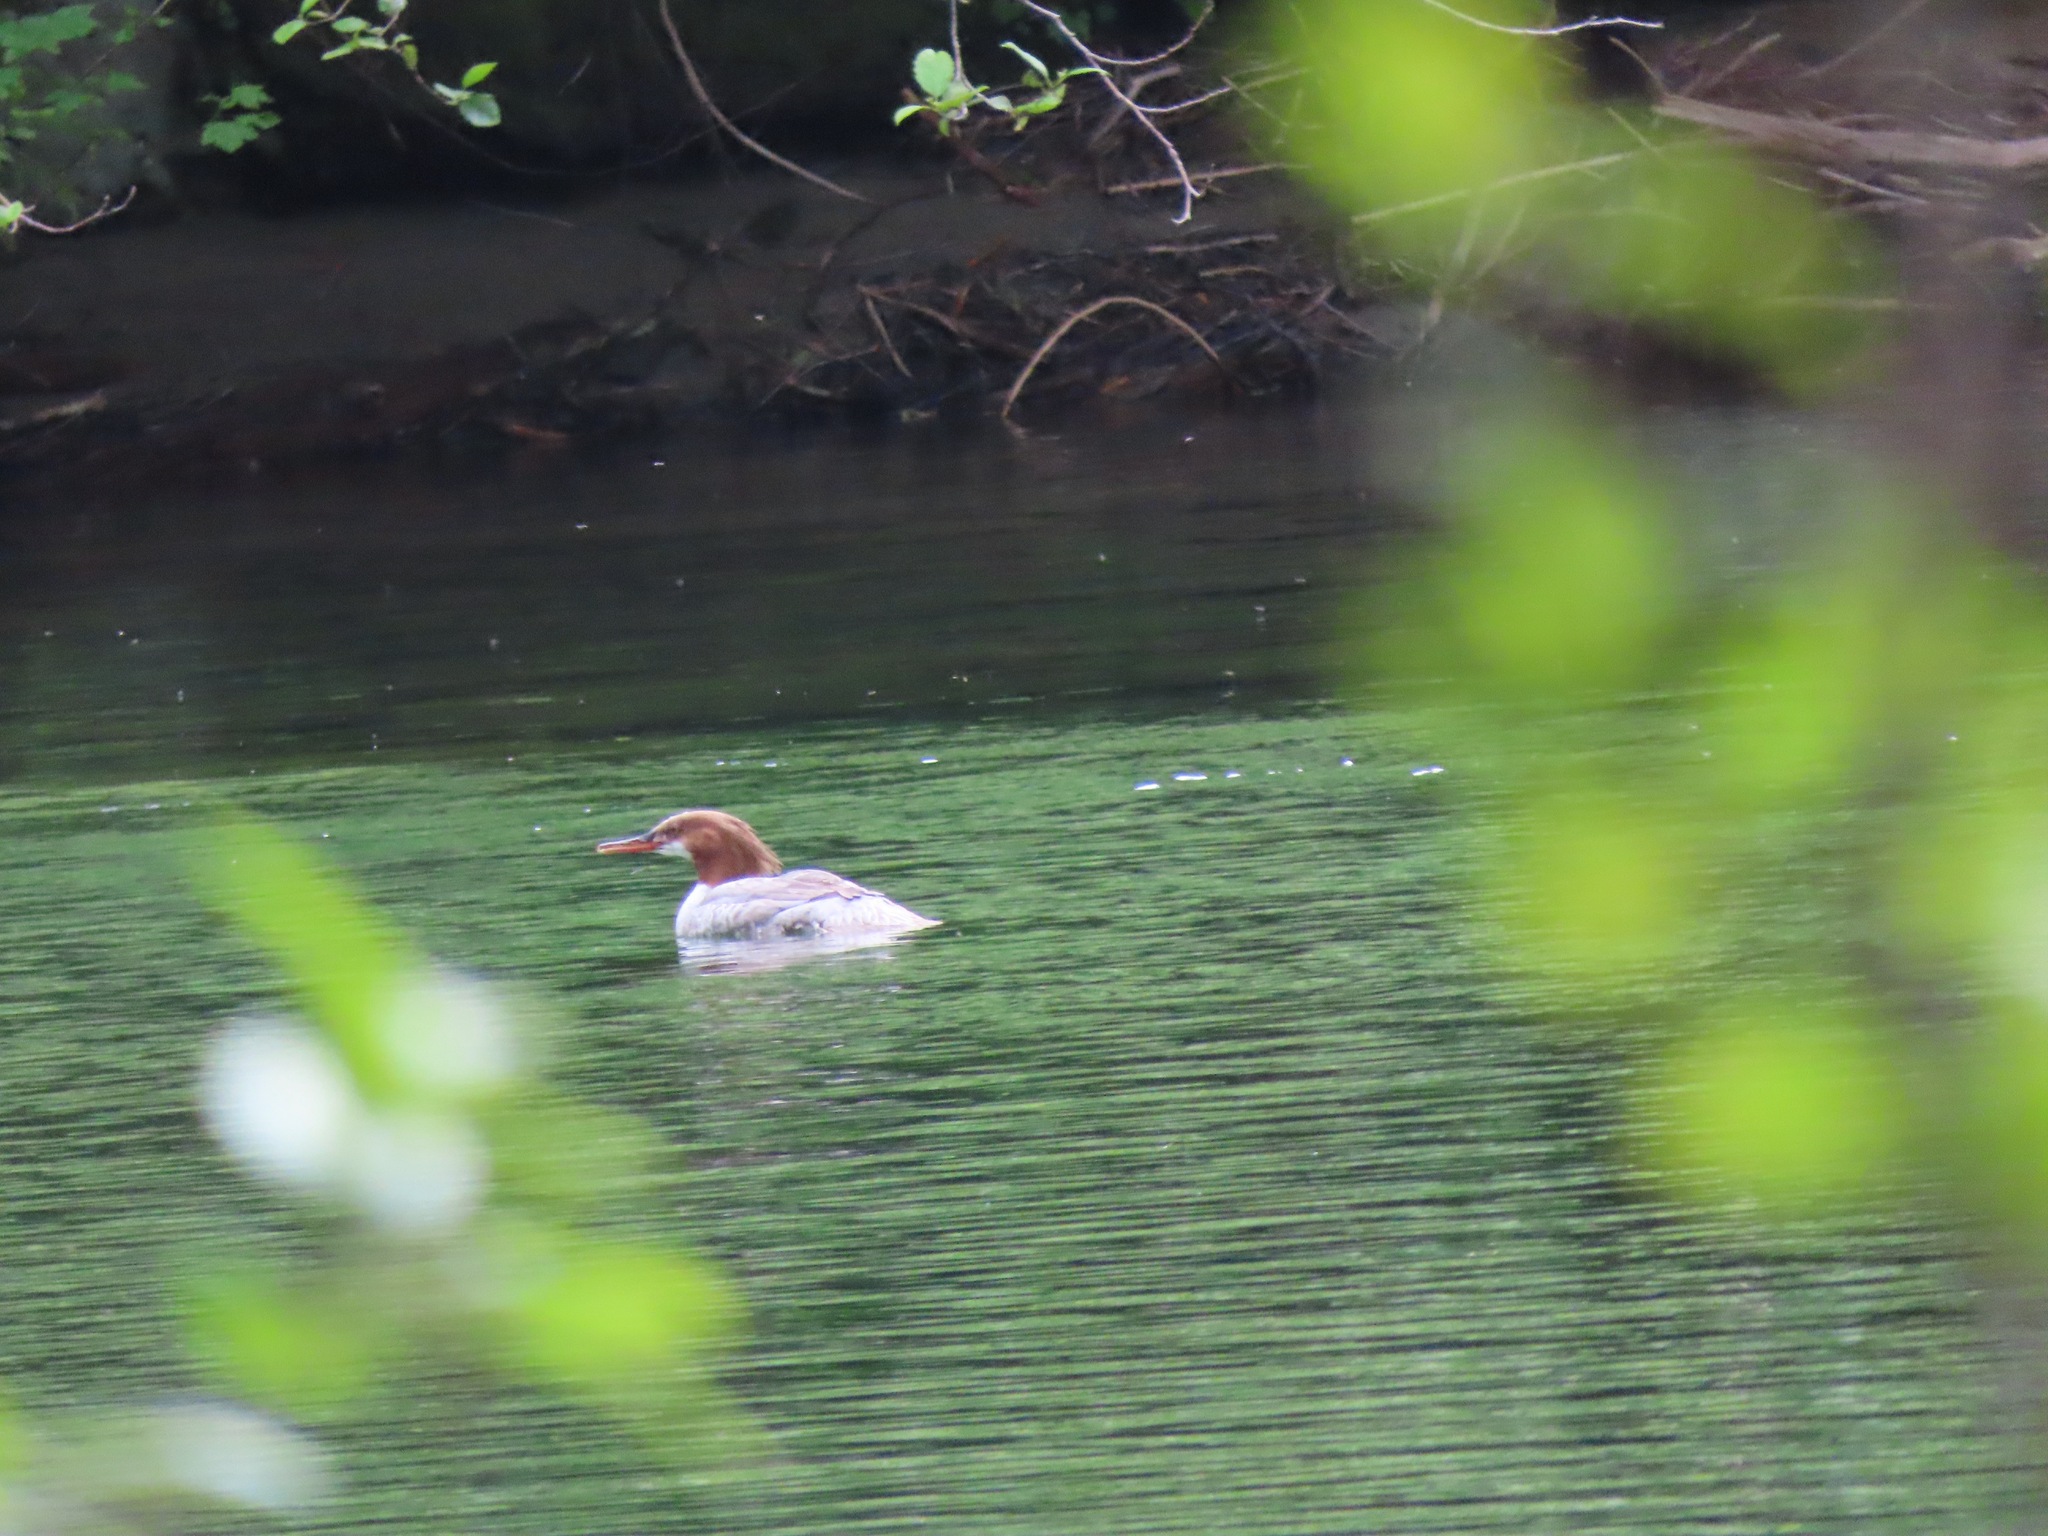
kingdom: Animalia
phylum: Chordata
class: Aves
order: Anseriformes
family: Anatidae
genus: Mergus
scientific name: Mergus merganser
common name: Common merganser
